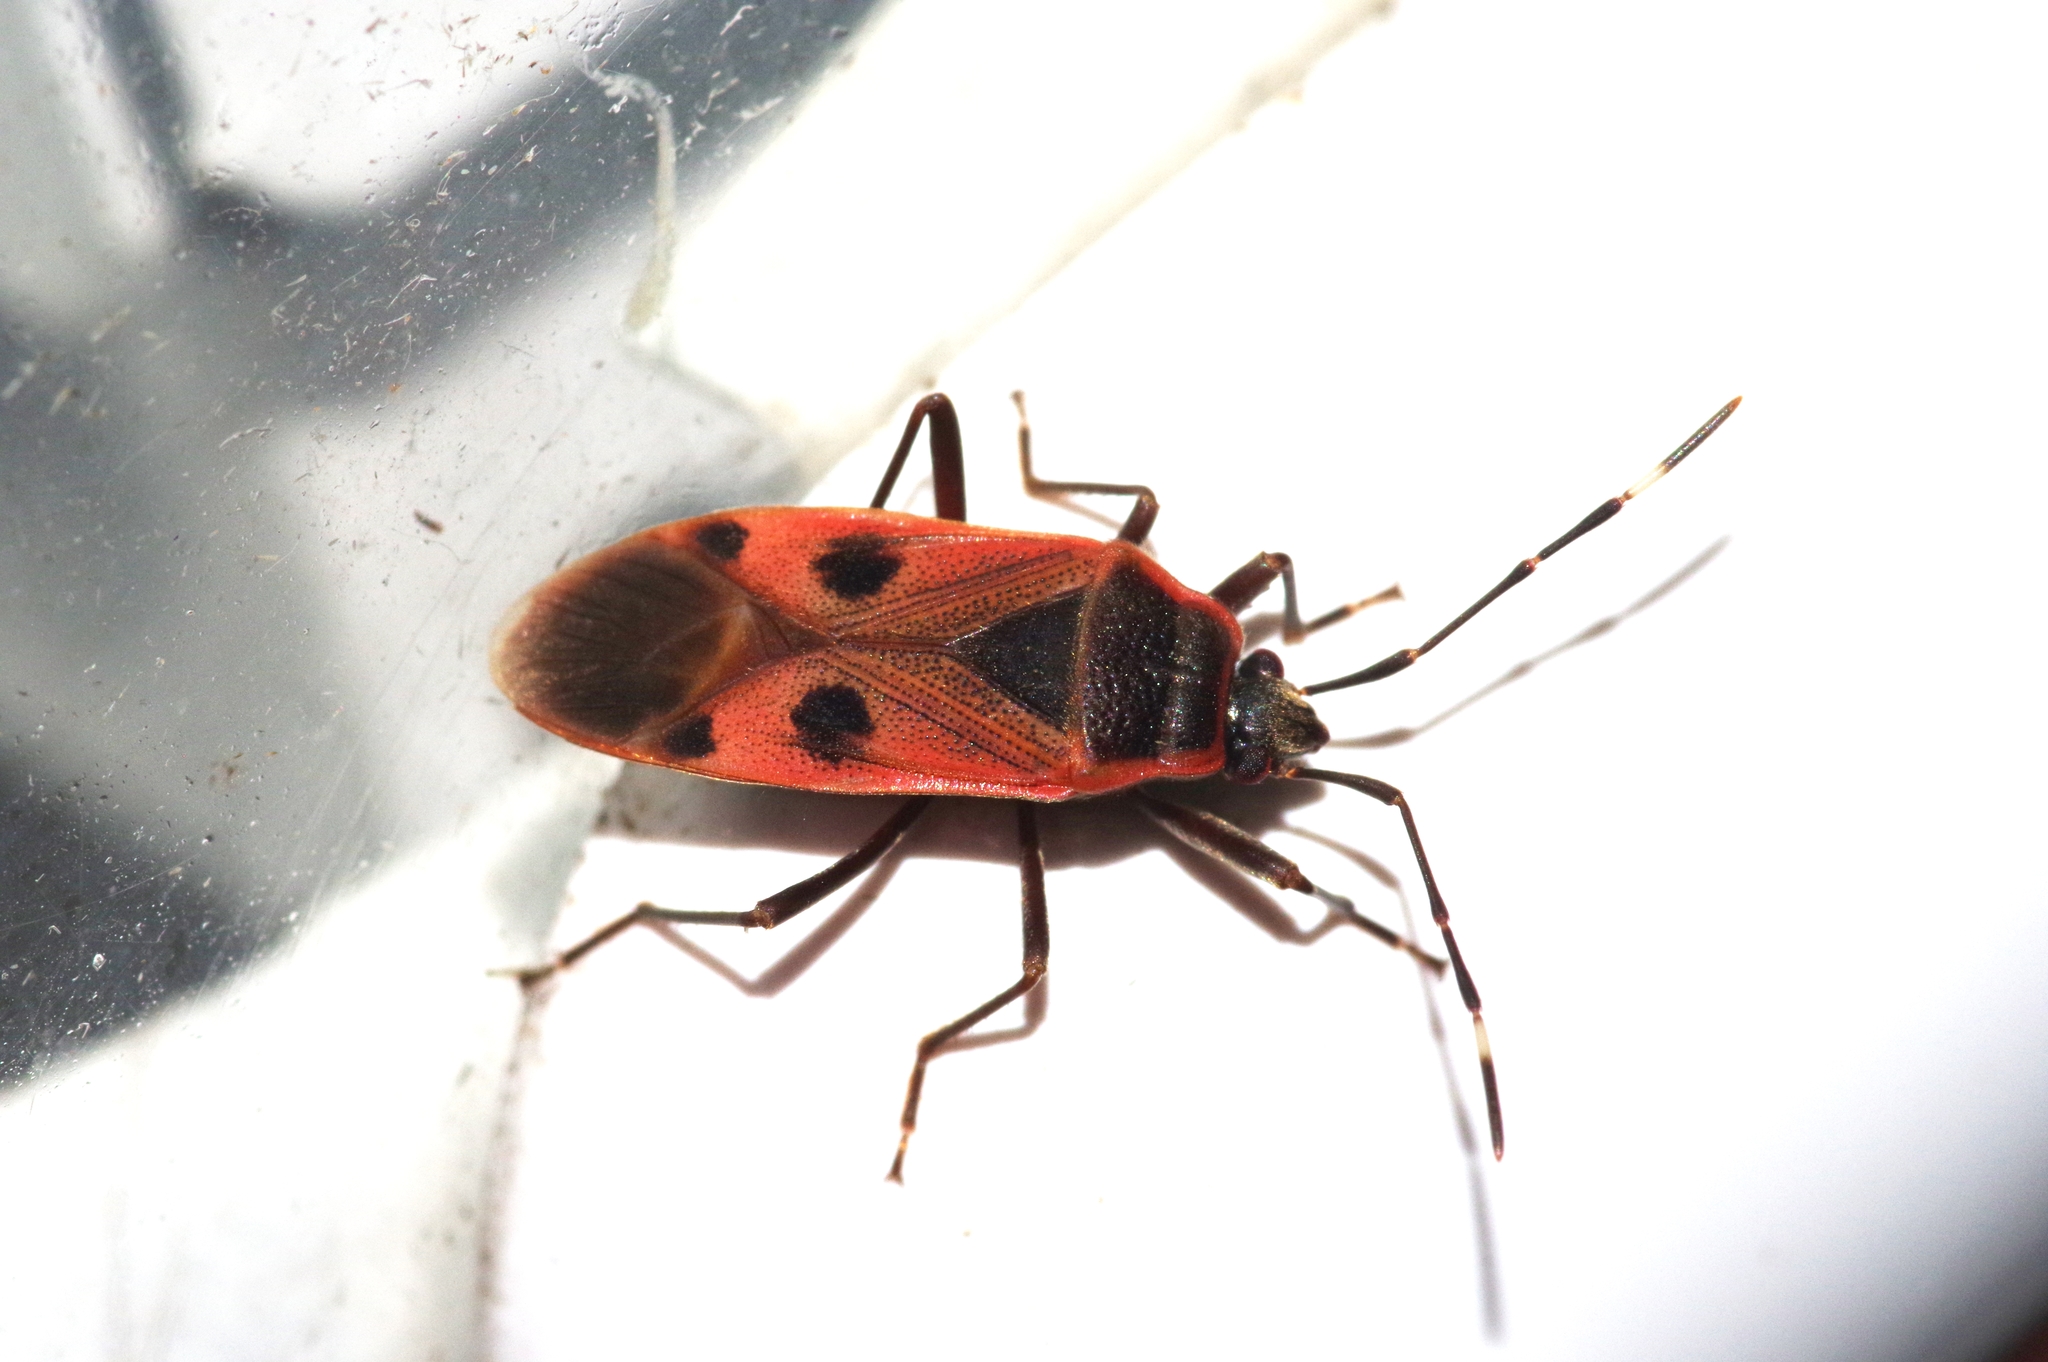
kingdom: Animalia
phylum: Arthropoda
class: Insecta
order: Hemiptera
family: Largidae
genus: Physopelta
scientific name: Physopelta parviceps
